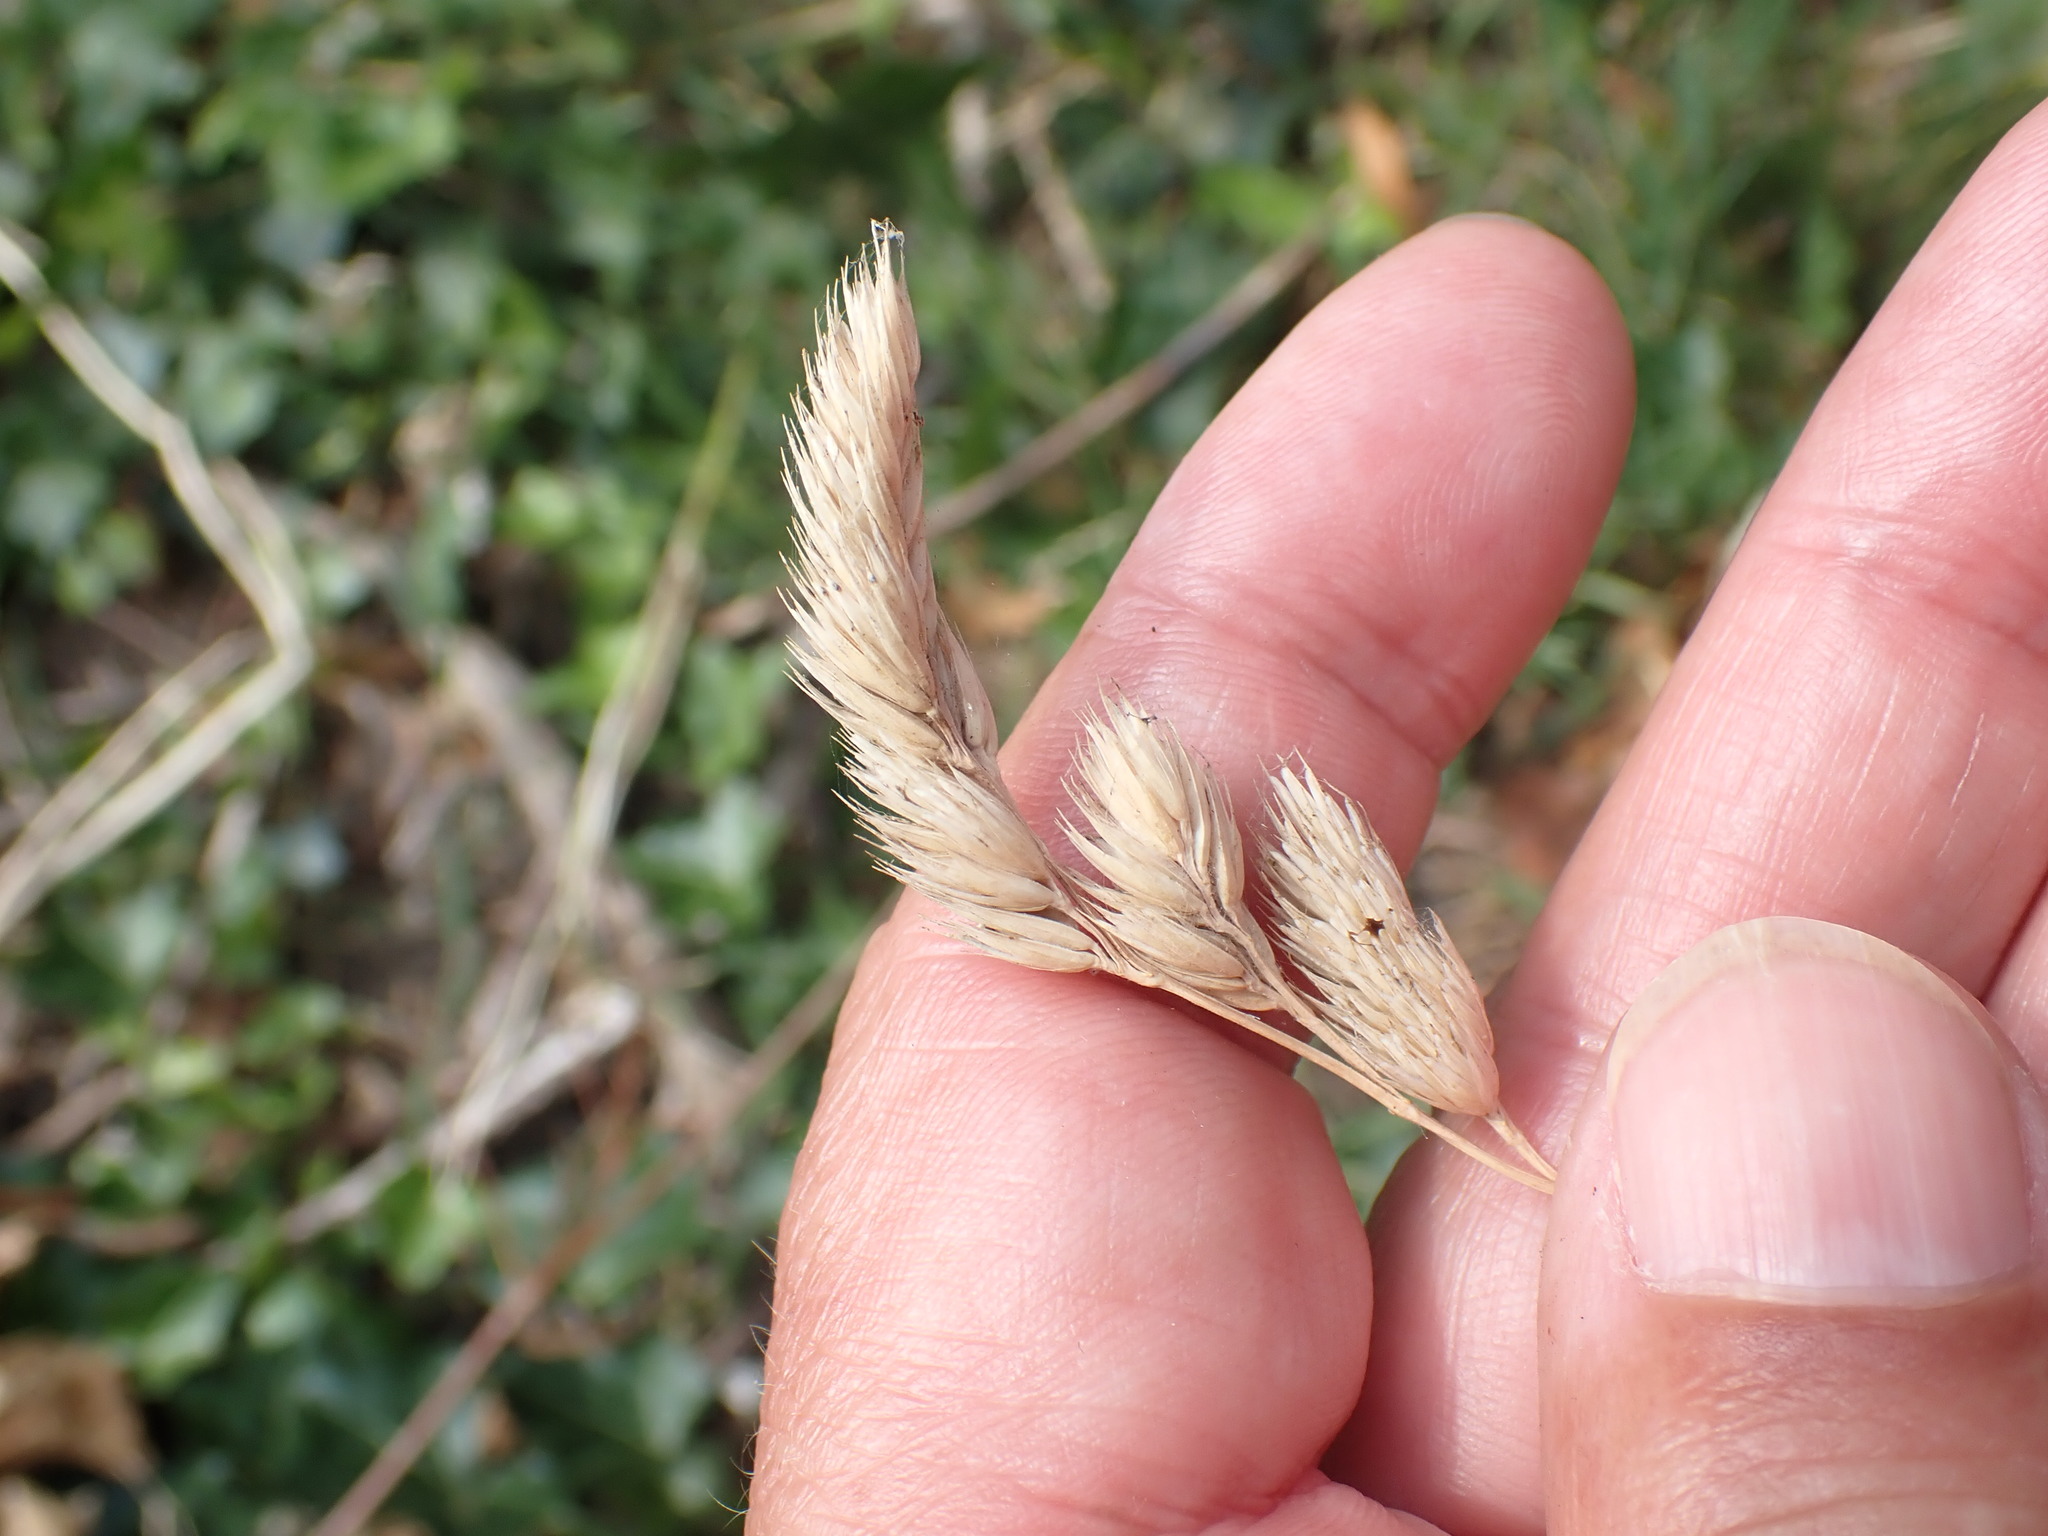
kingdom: Plantae
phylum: Tracheophyta
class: Liliopsida
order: Poales
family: Poaceae
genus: Dactylis
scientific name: Dactylis glomerata
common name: Orchardgrass
